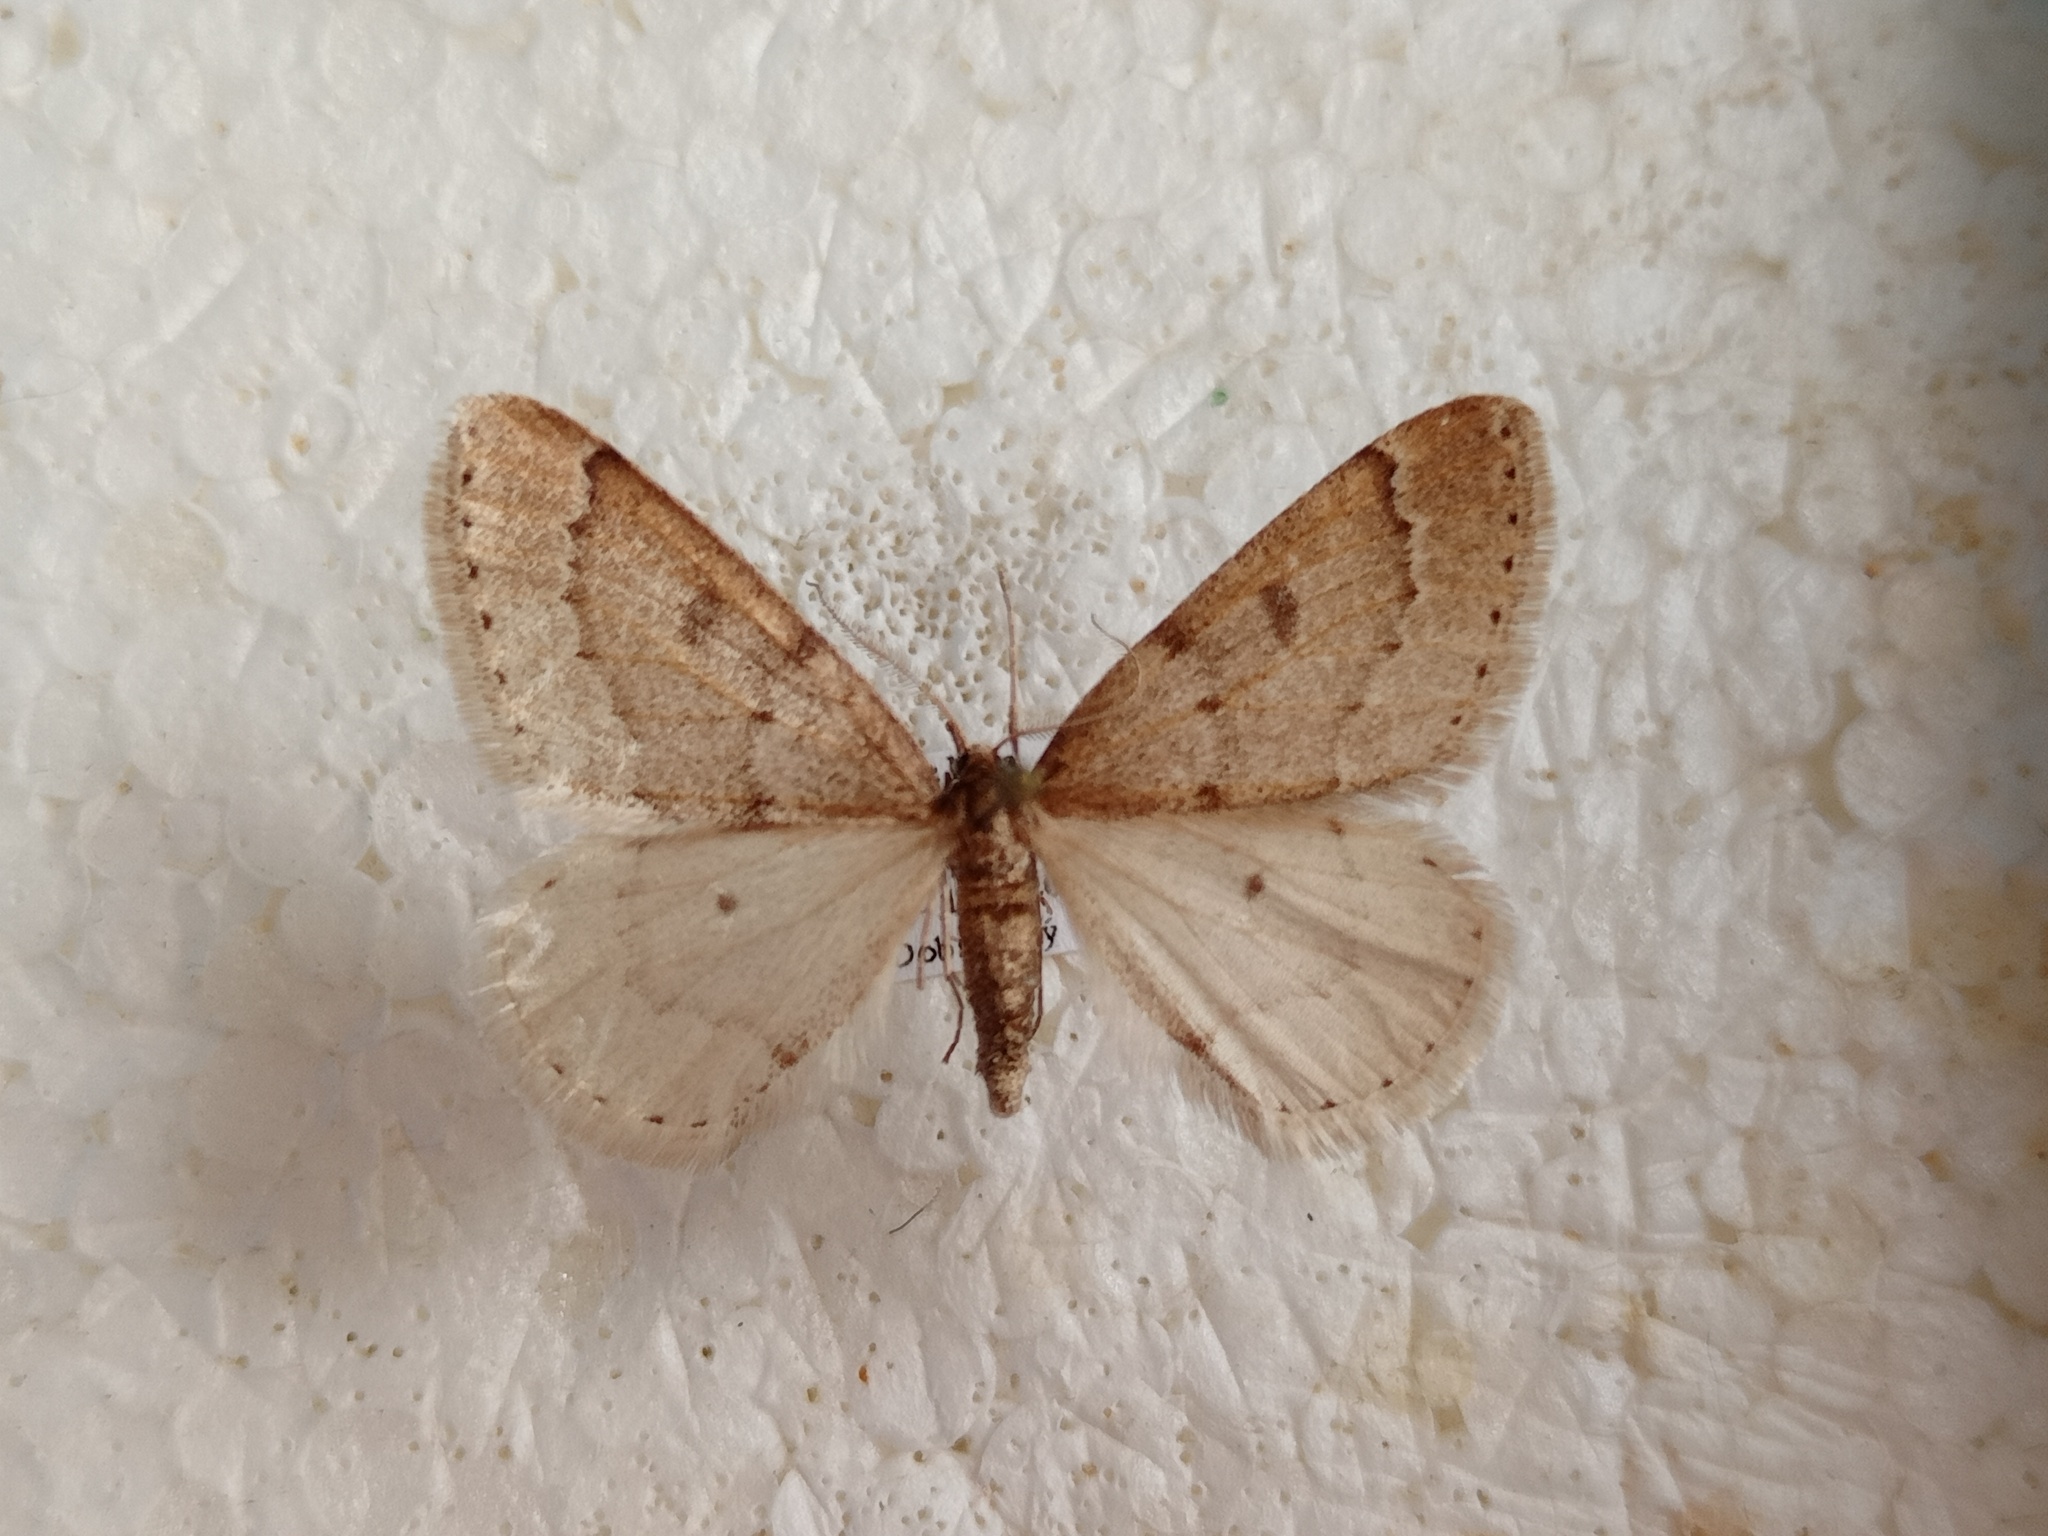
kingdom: Animalia
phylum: Arthropoda
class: Insecta
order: Lepidoptera
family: Geometridae
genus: Theria
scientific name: Theria rupicapraria
